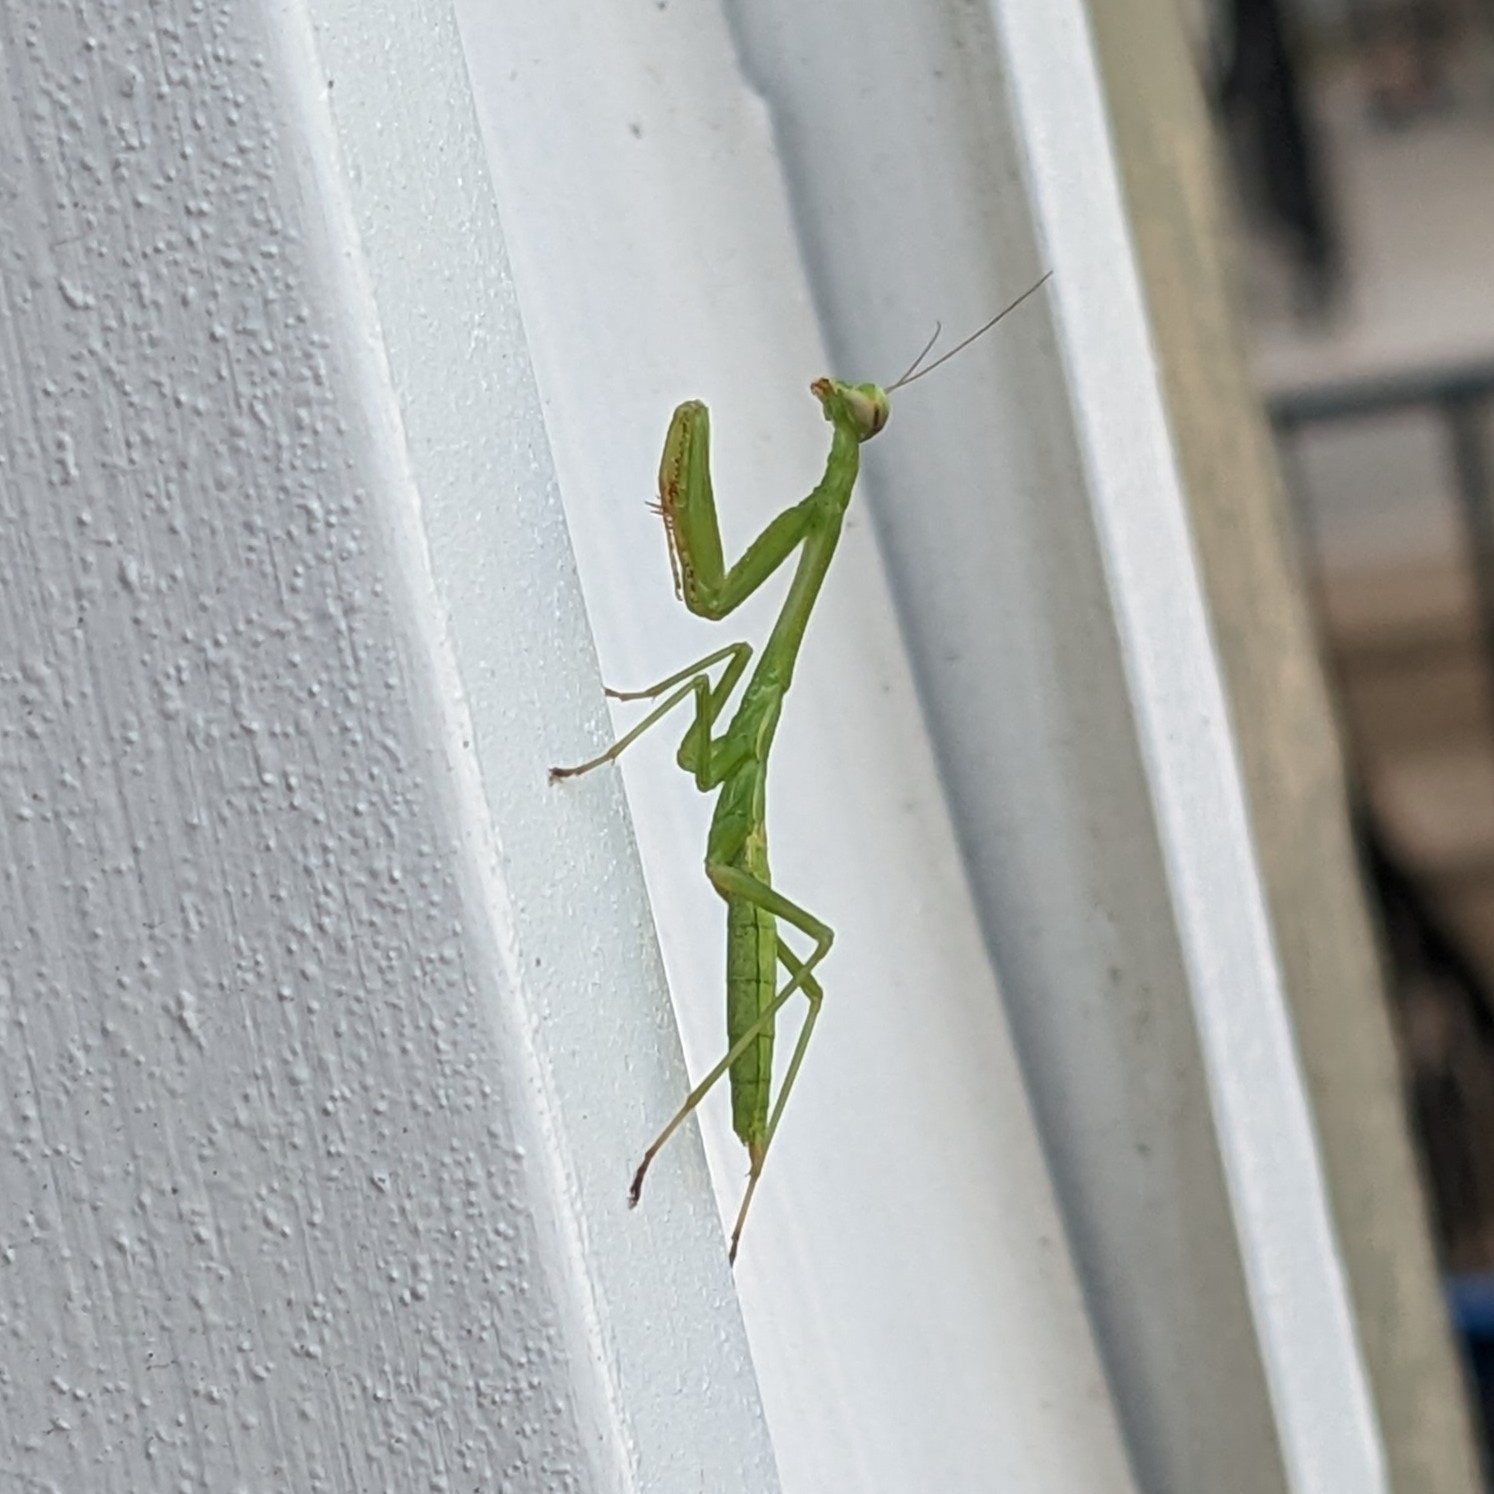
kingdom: Animalia
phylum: Arthropoda
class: Insecta
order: Mantodea
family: Mantidae
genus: Stagmomantis
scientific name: Stagmomantis carolina
